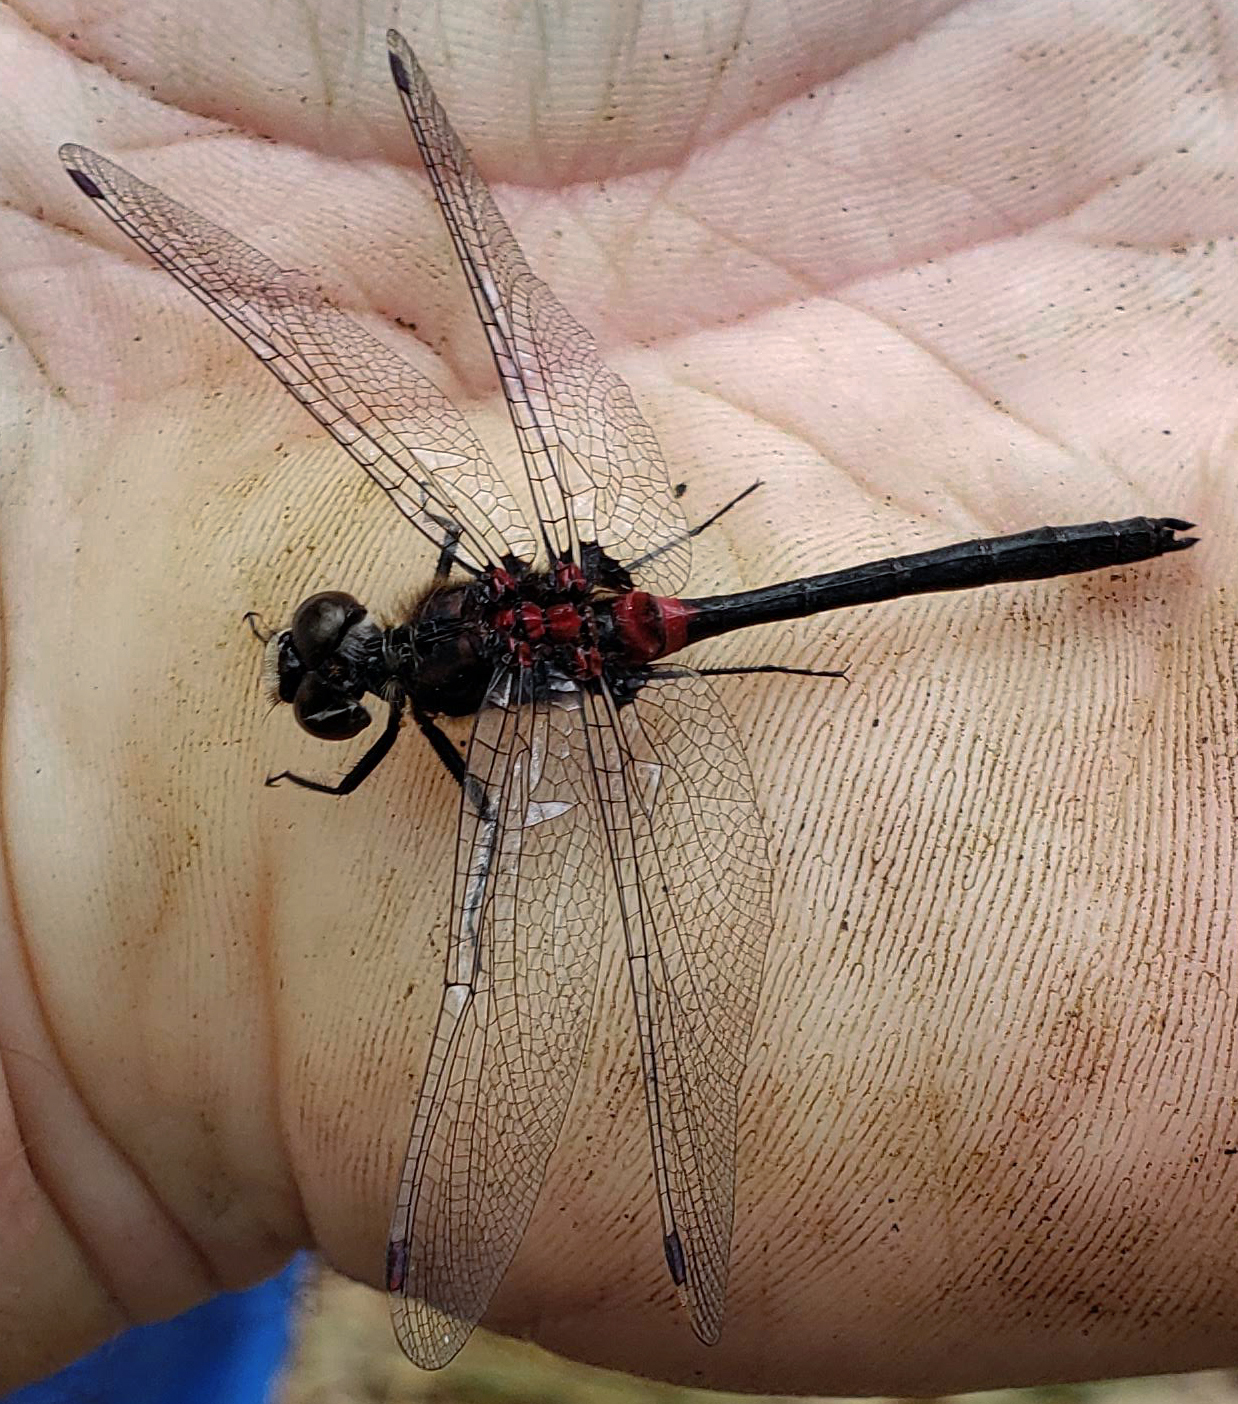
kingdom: Animalia
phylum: Arthropoda
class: Insecta
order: Odonata
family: Libellulidae
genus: Leucorrhinia
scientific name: Leucorrhinia glacialis
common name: Crimson-ringed whiteface
